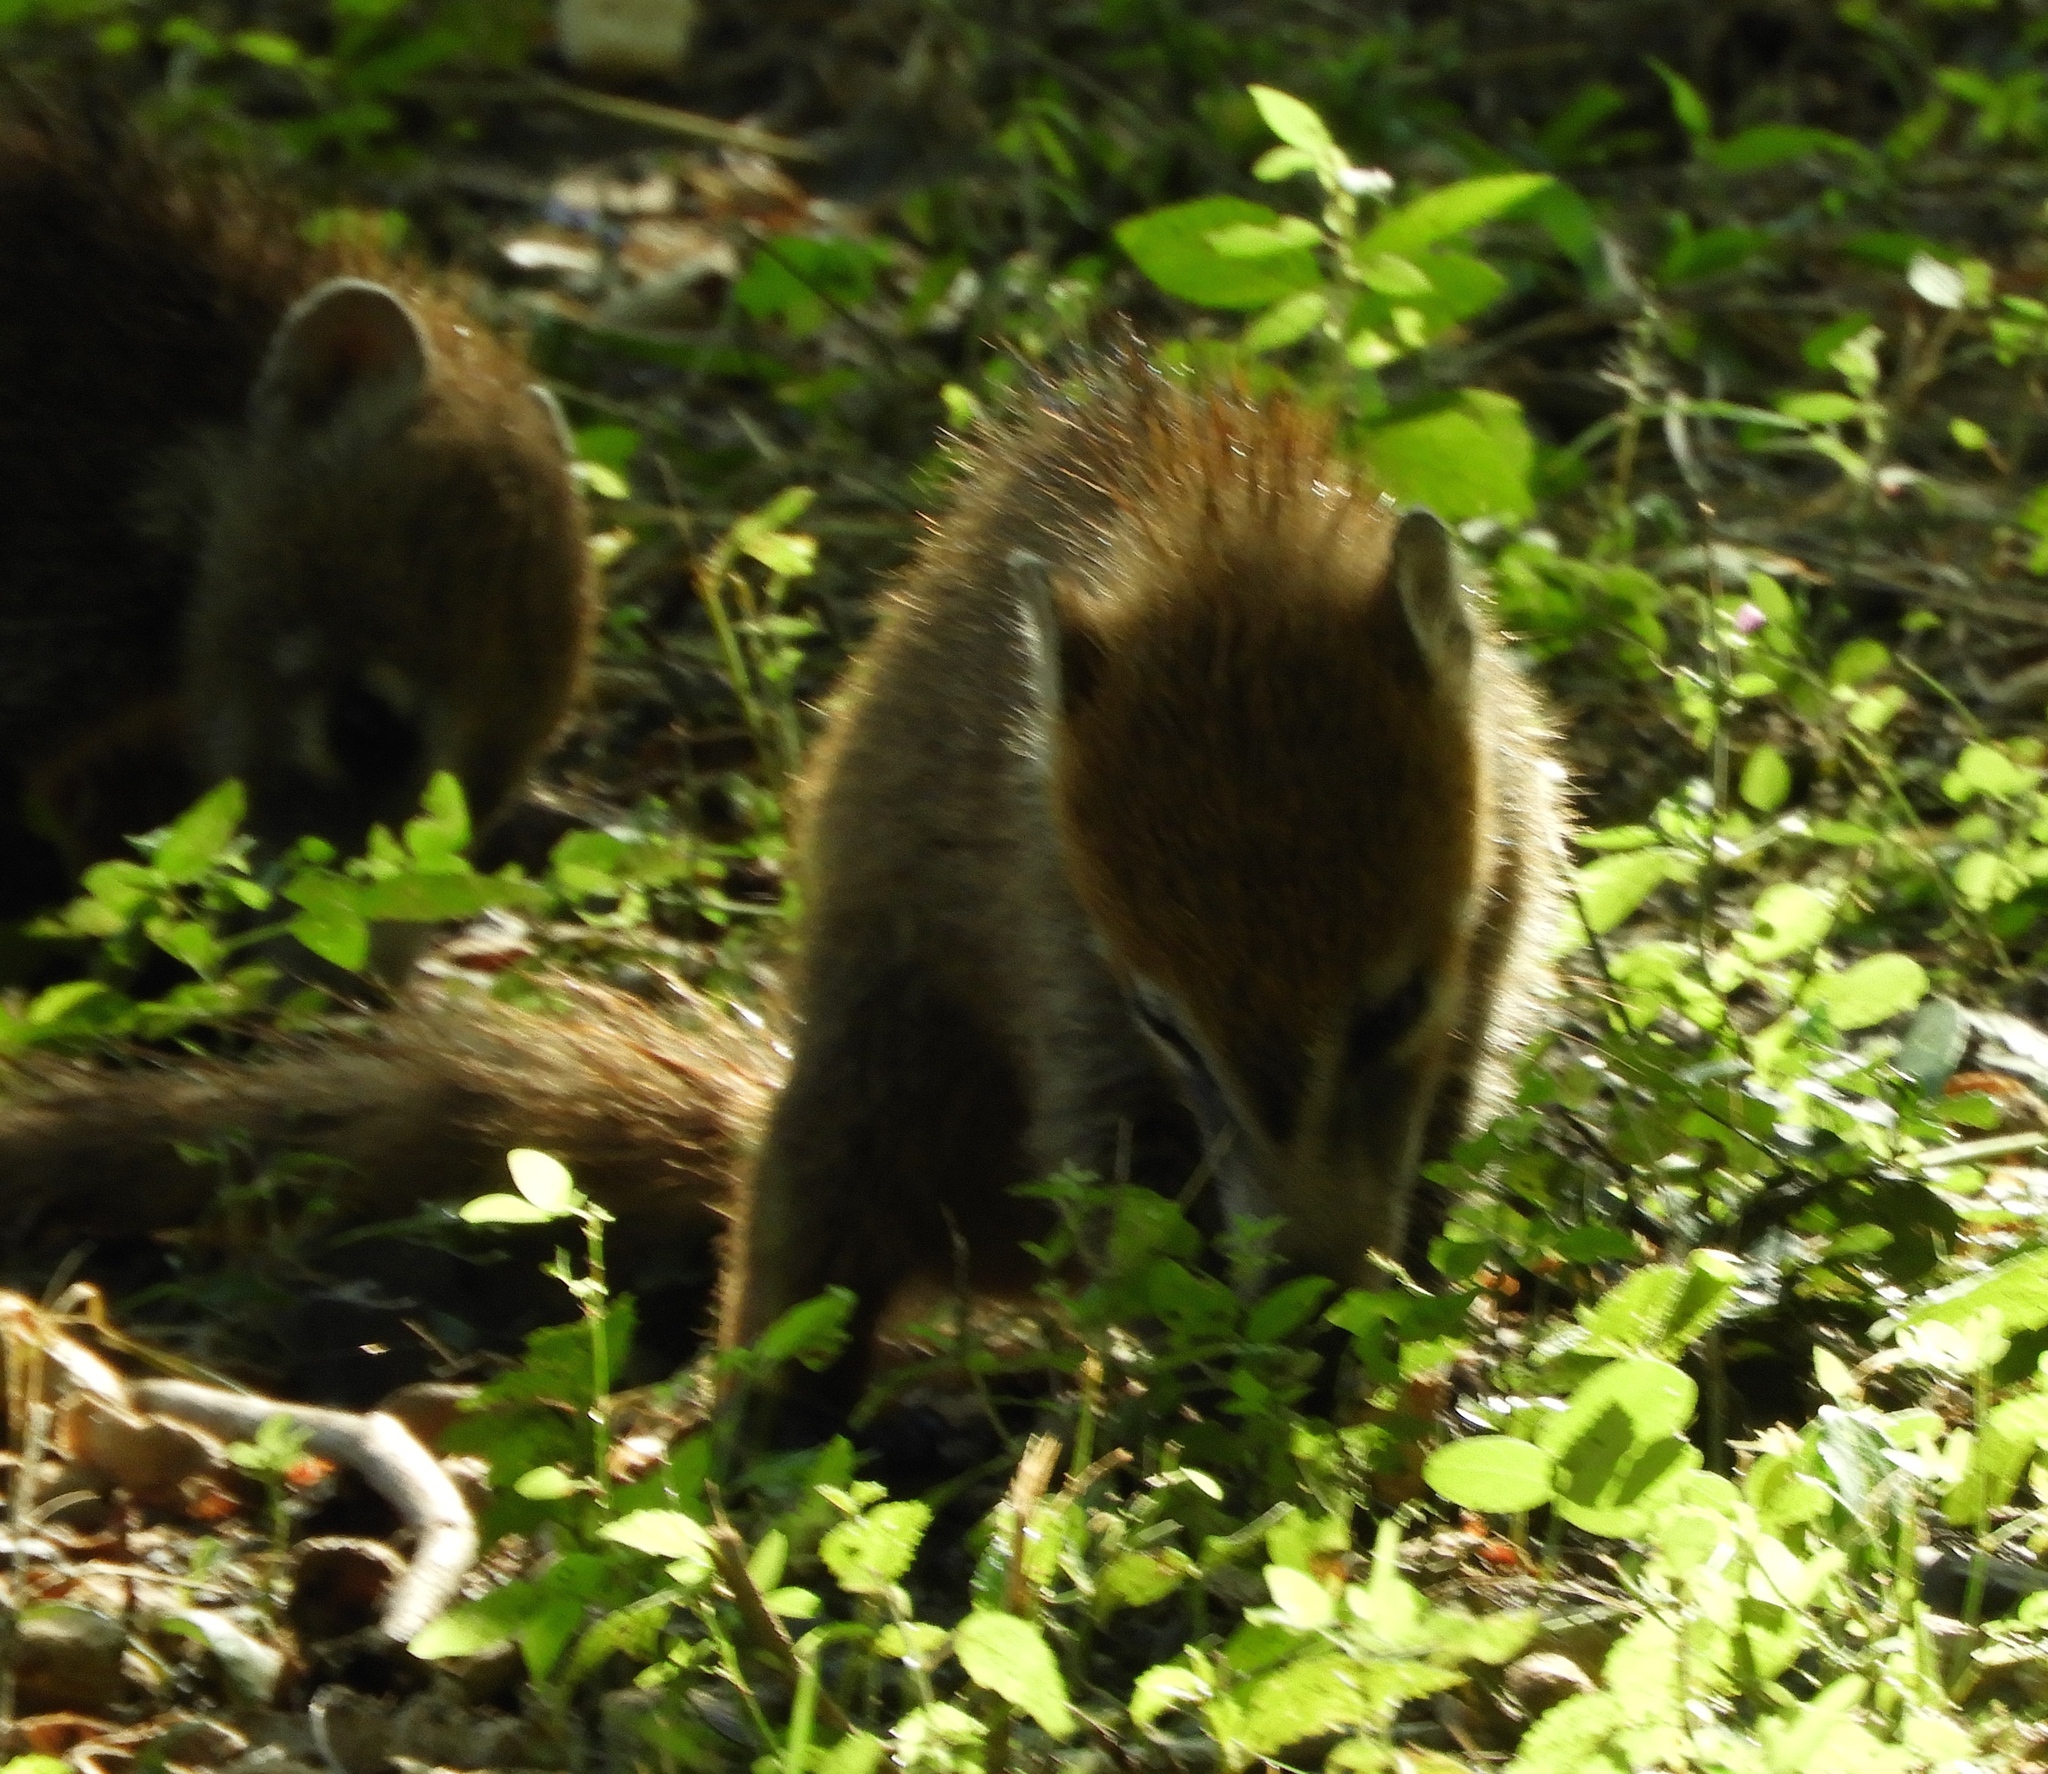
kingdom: Animalia
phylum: Chordata
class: Mammalia
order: Carnivora
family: Procyonidae
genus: Nasua
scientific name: Nasua narica
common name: White-nosed coati
